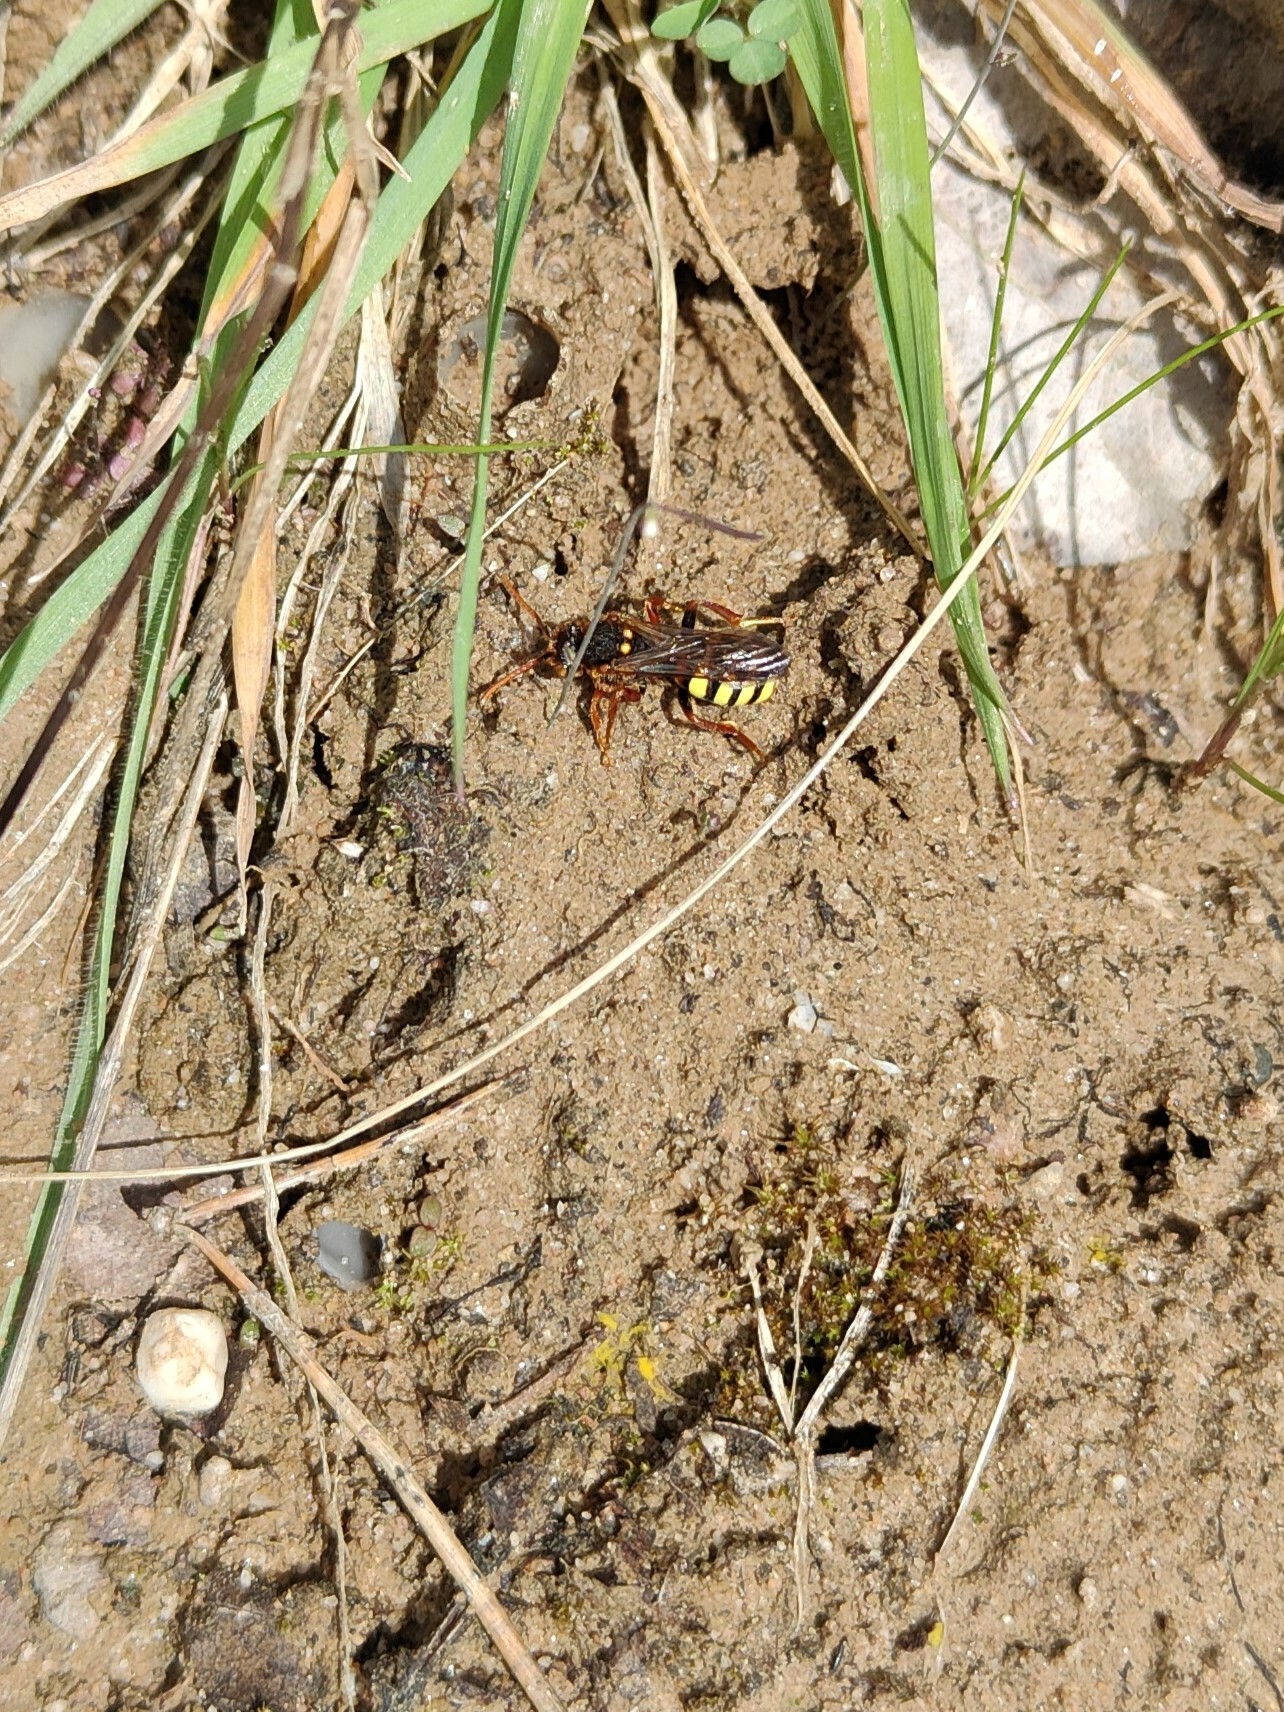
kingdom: Animalia
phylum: Arthropoda
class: Insecta
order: Hymenoptera
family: Apidae
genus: Nomada
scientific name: Nomada lathburiana
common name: Lathbury's nomad bee
